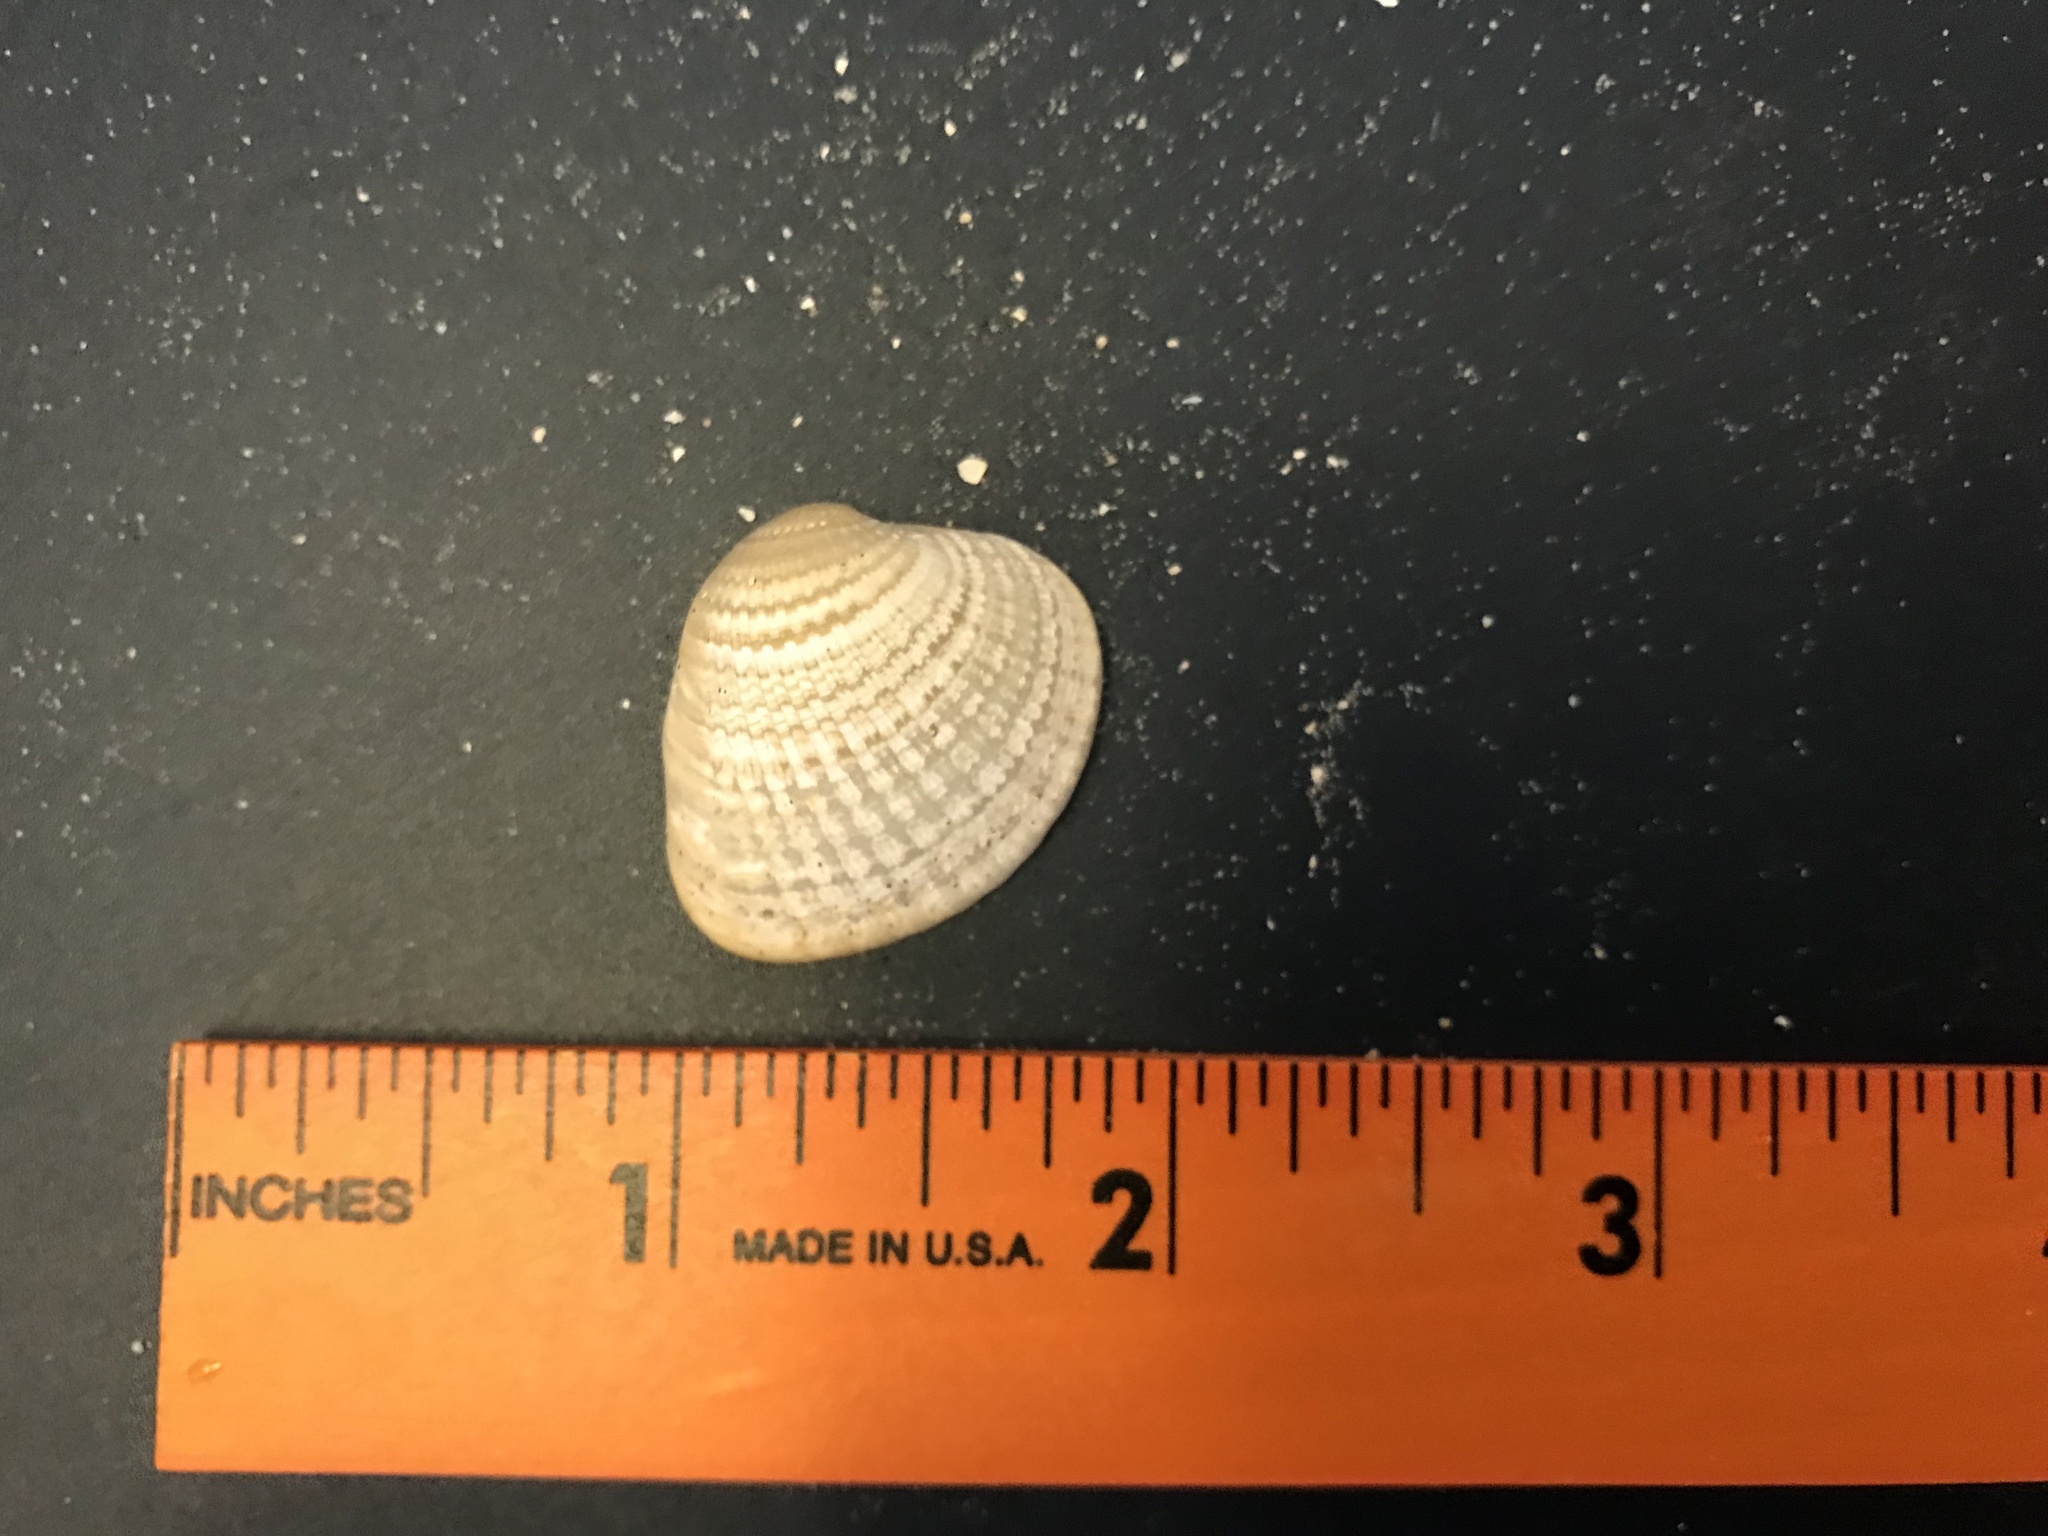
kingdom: Animalia
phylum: Mollusca
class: Bivalvia
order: Venerida
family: Veneridae
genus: Chione
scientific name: Chione elevata
